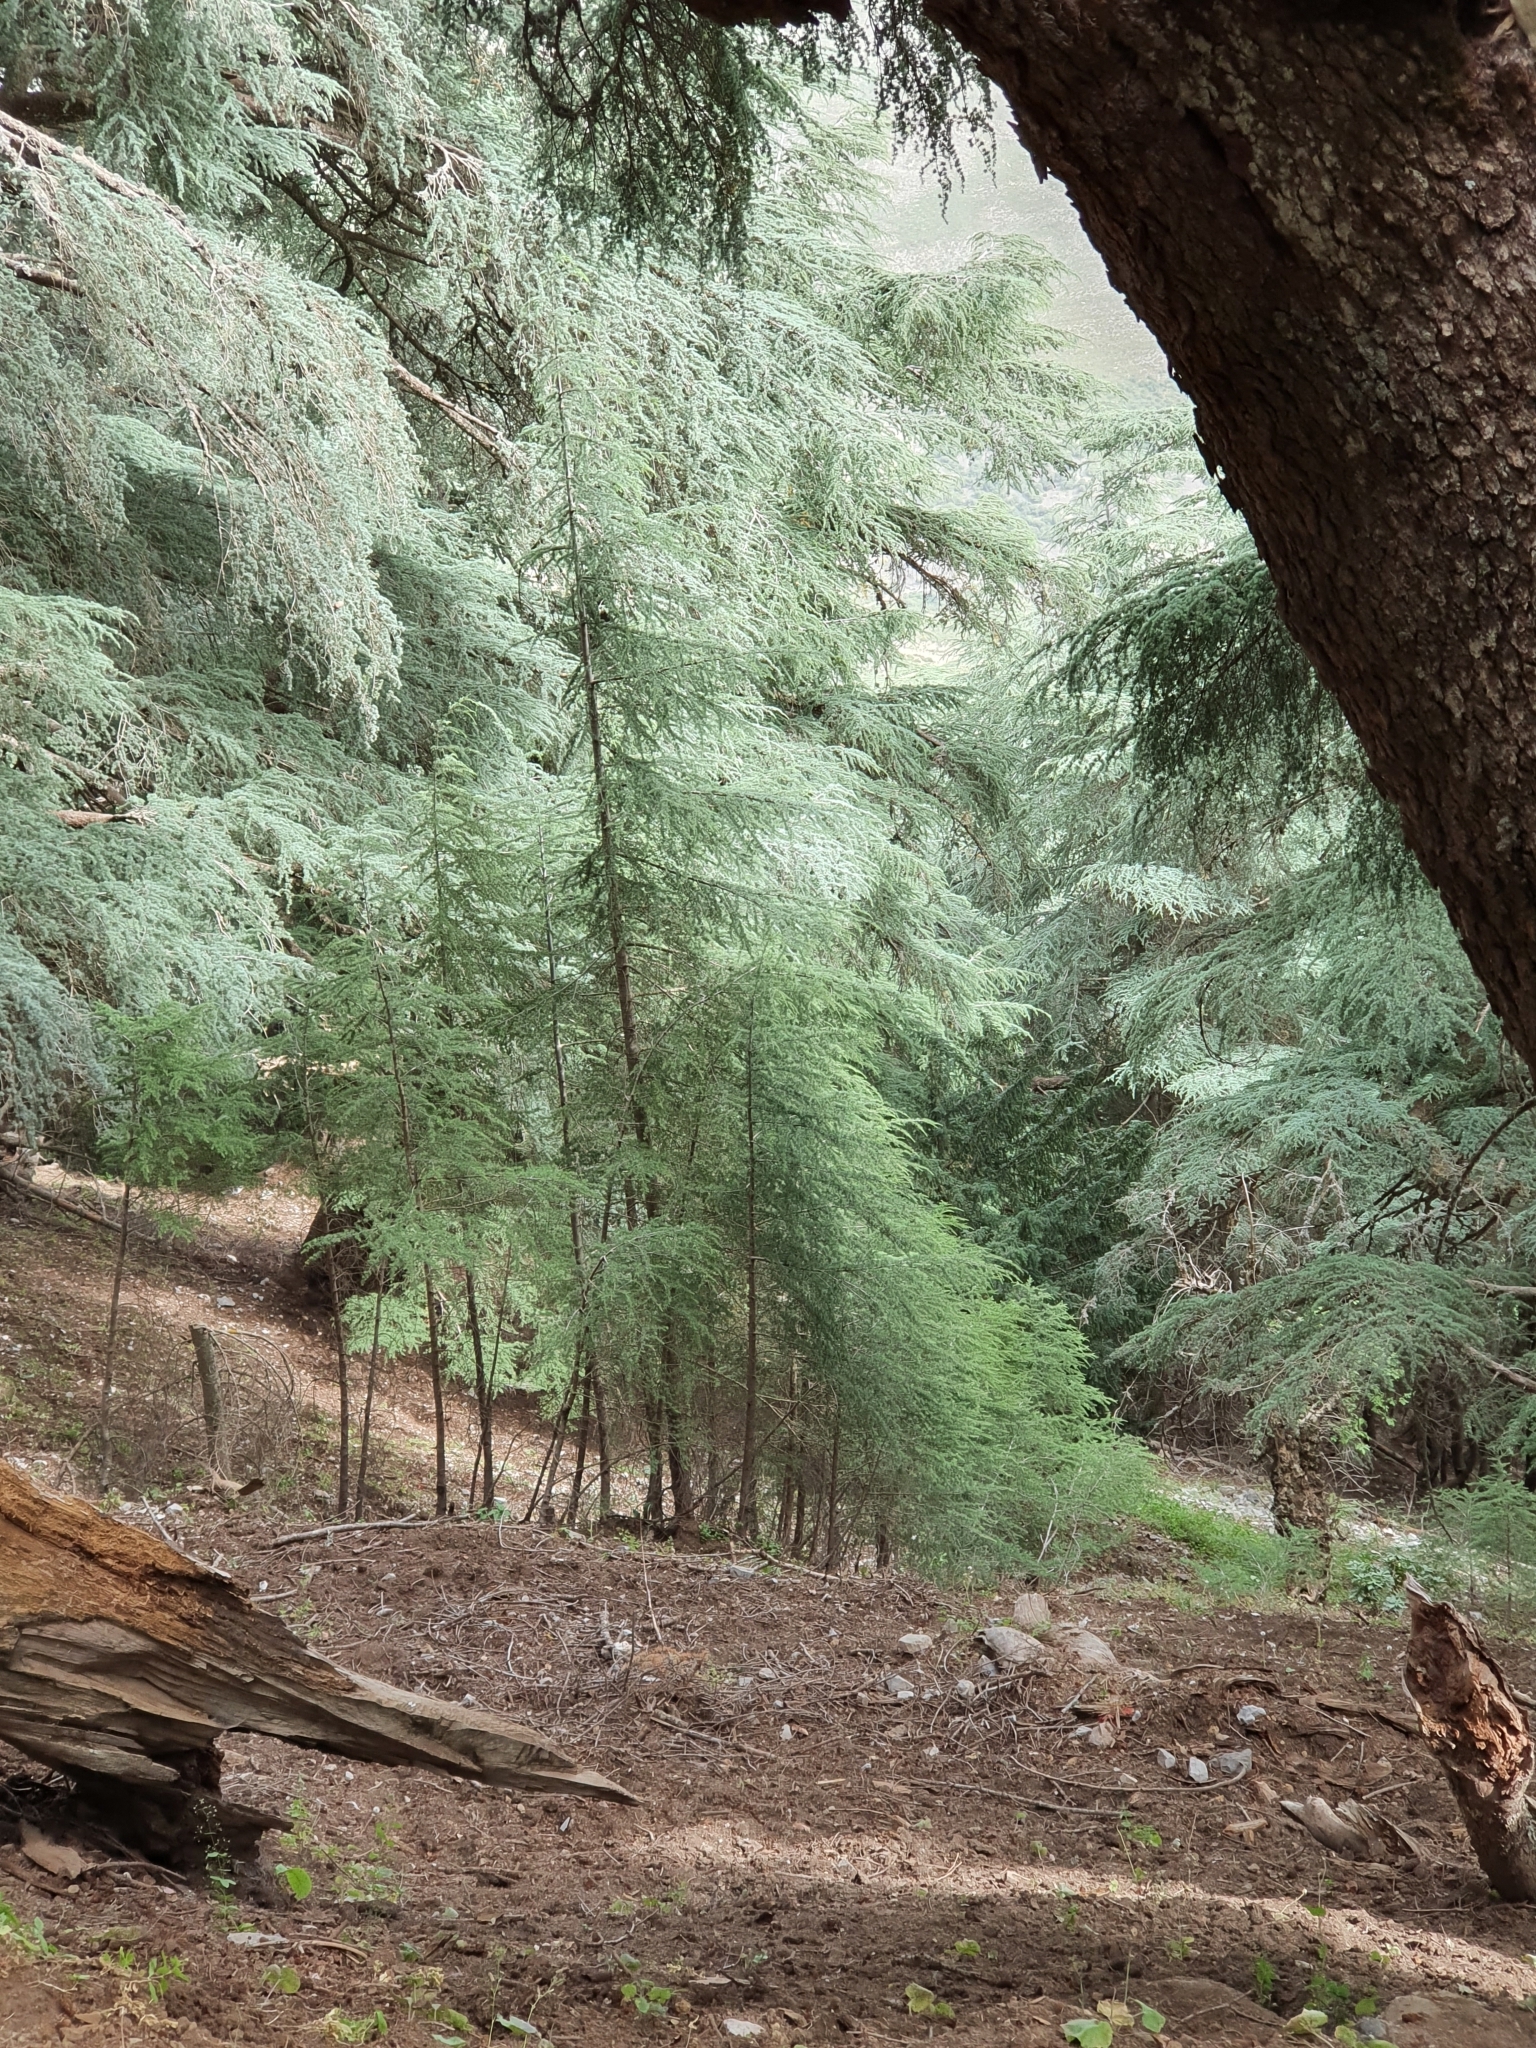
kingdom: Plantae
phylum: Tracheophyta
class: Pinopsida
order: Pinales
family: Pinaceae
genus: Cedrus
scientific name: Cedrus atlantica
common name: Atlas cedar
